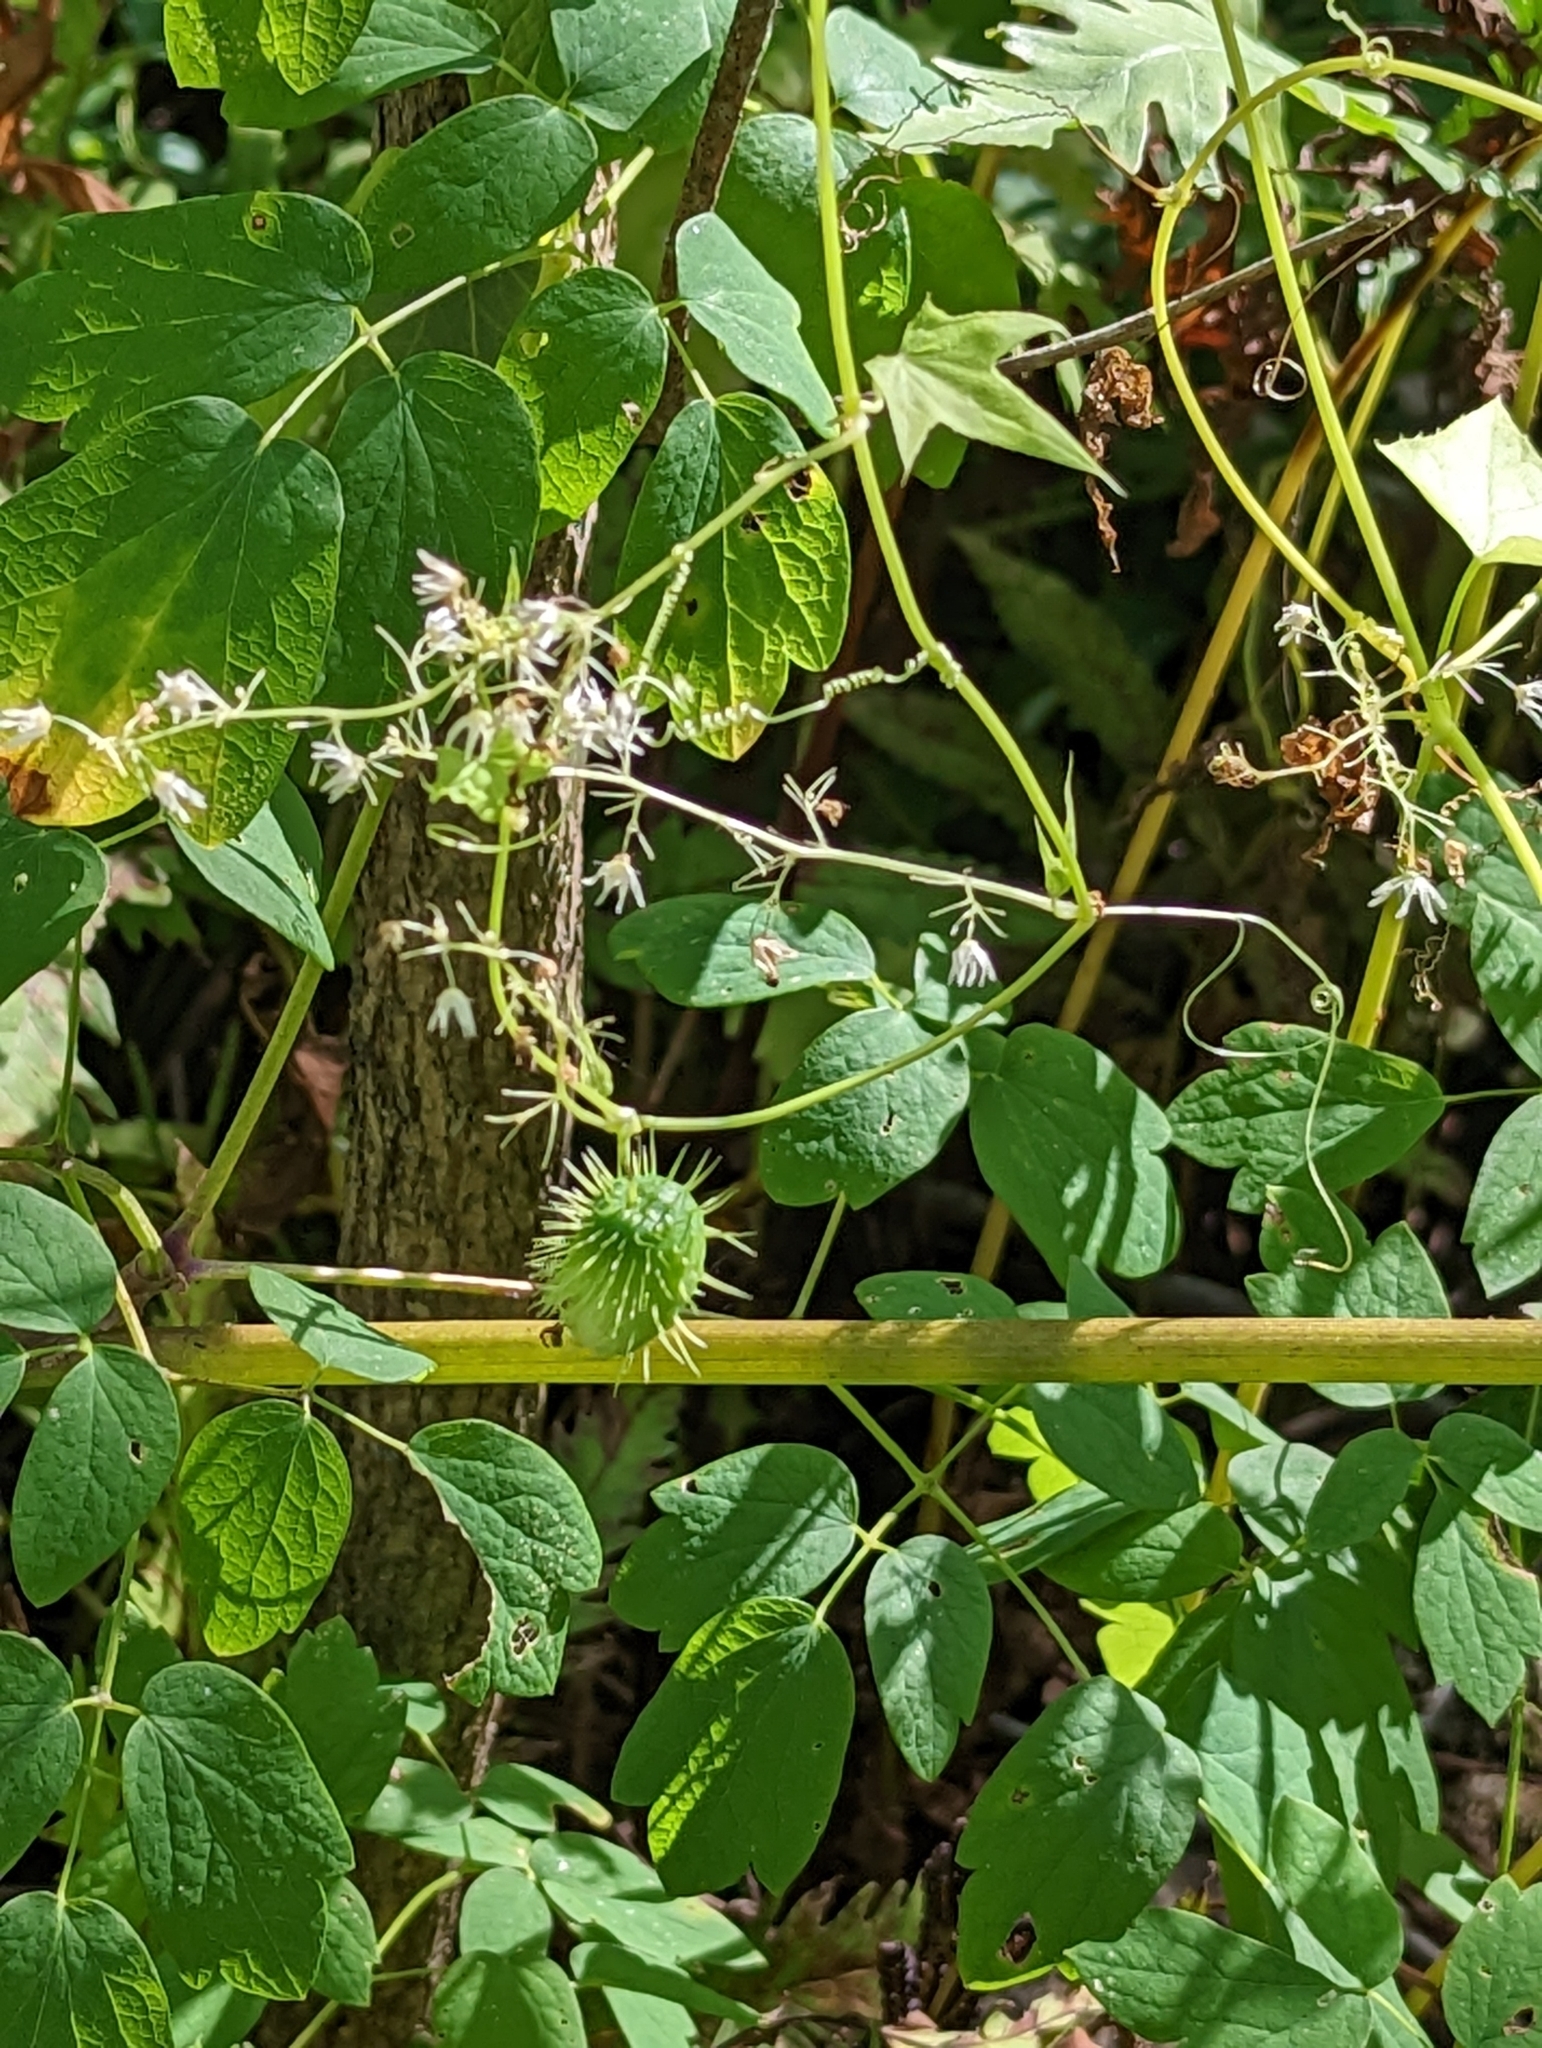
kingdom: Plantae
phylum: Tracheophyta
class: Magnoliopsida
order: Cucurbitales
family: Cucurbitaceae
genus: Echinocystis
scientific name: Echinocystis lobata
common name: Wild cucumber
